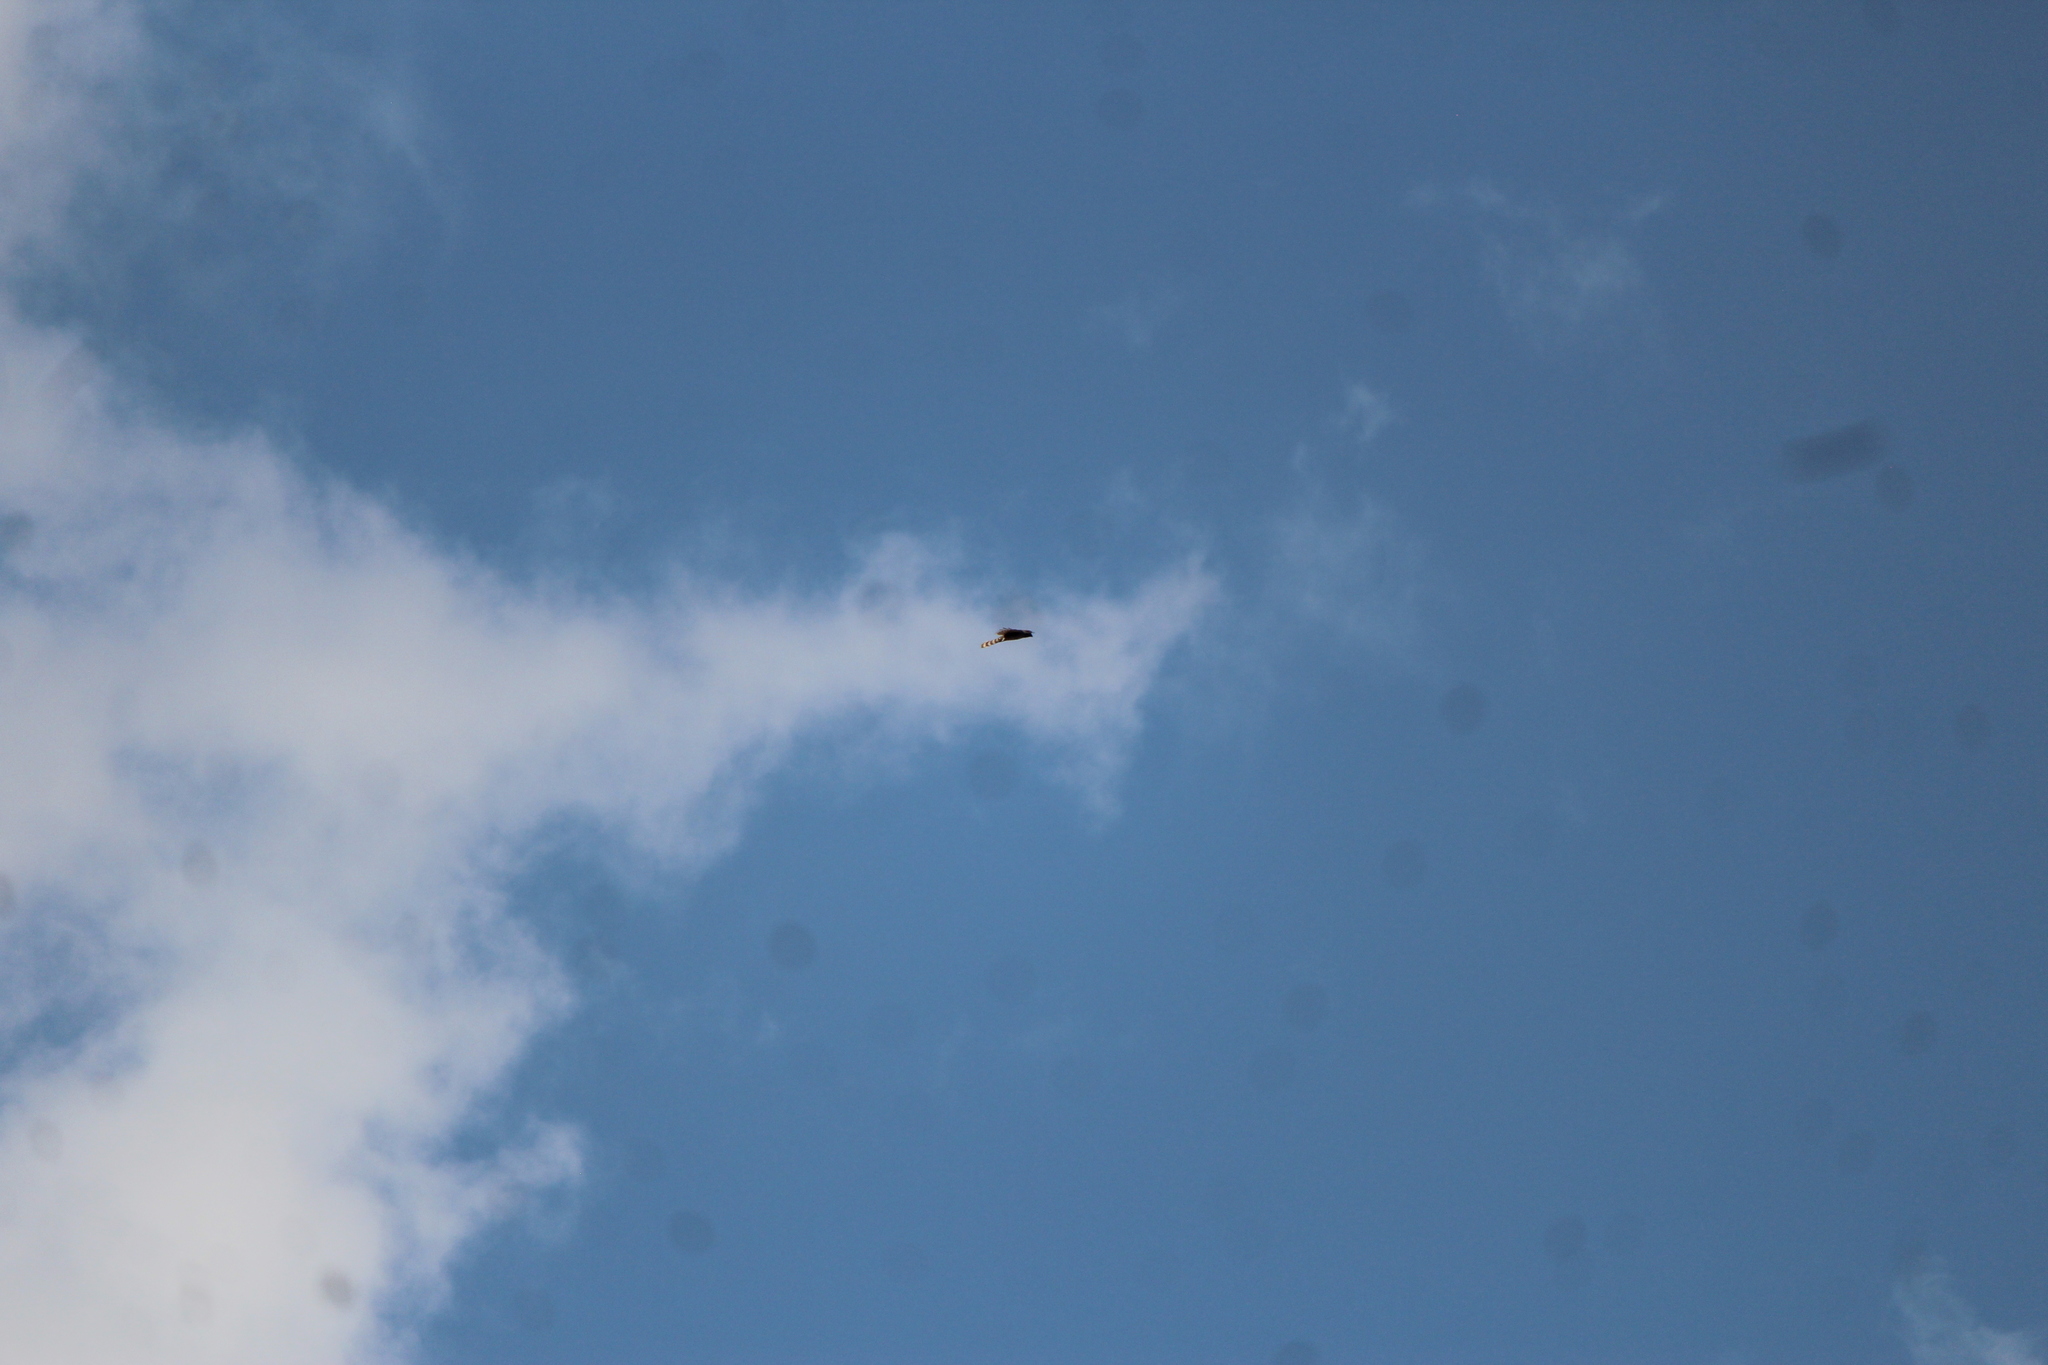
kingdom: Animalia
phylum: Chordata
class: Aves
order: Accipitriformes
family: Accipitridae
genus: Accipiter
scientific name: Accipiter cooperii
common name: Cooper's hawk
